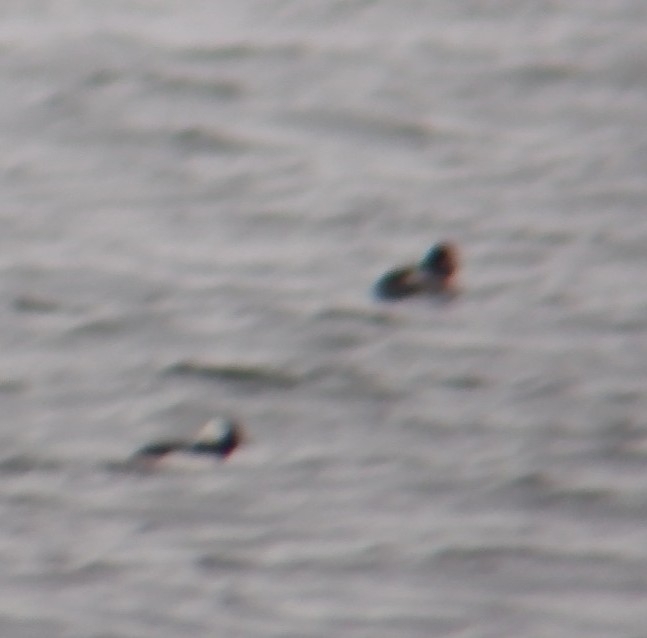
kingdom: Animalia
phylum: Chordata
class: Aves
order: Anseriformes
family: Anatidae
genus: Bucephala
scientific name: Bucephala albeola
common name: Bufflehead
